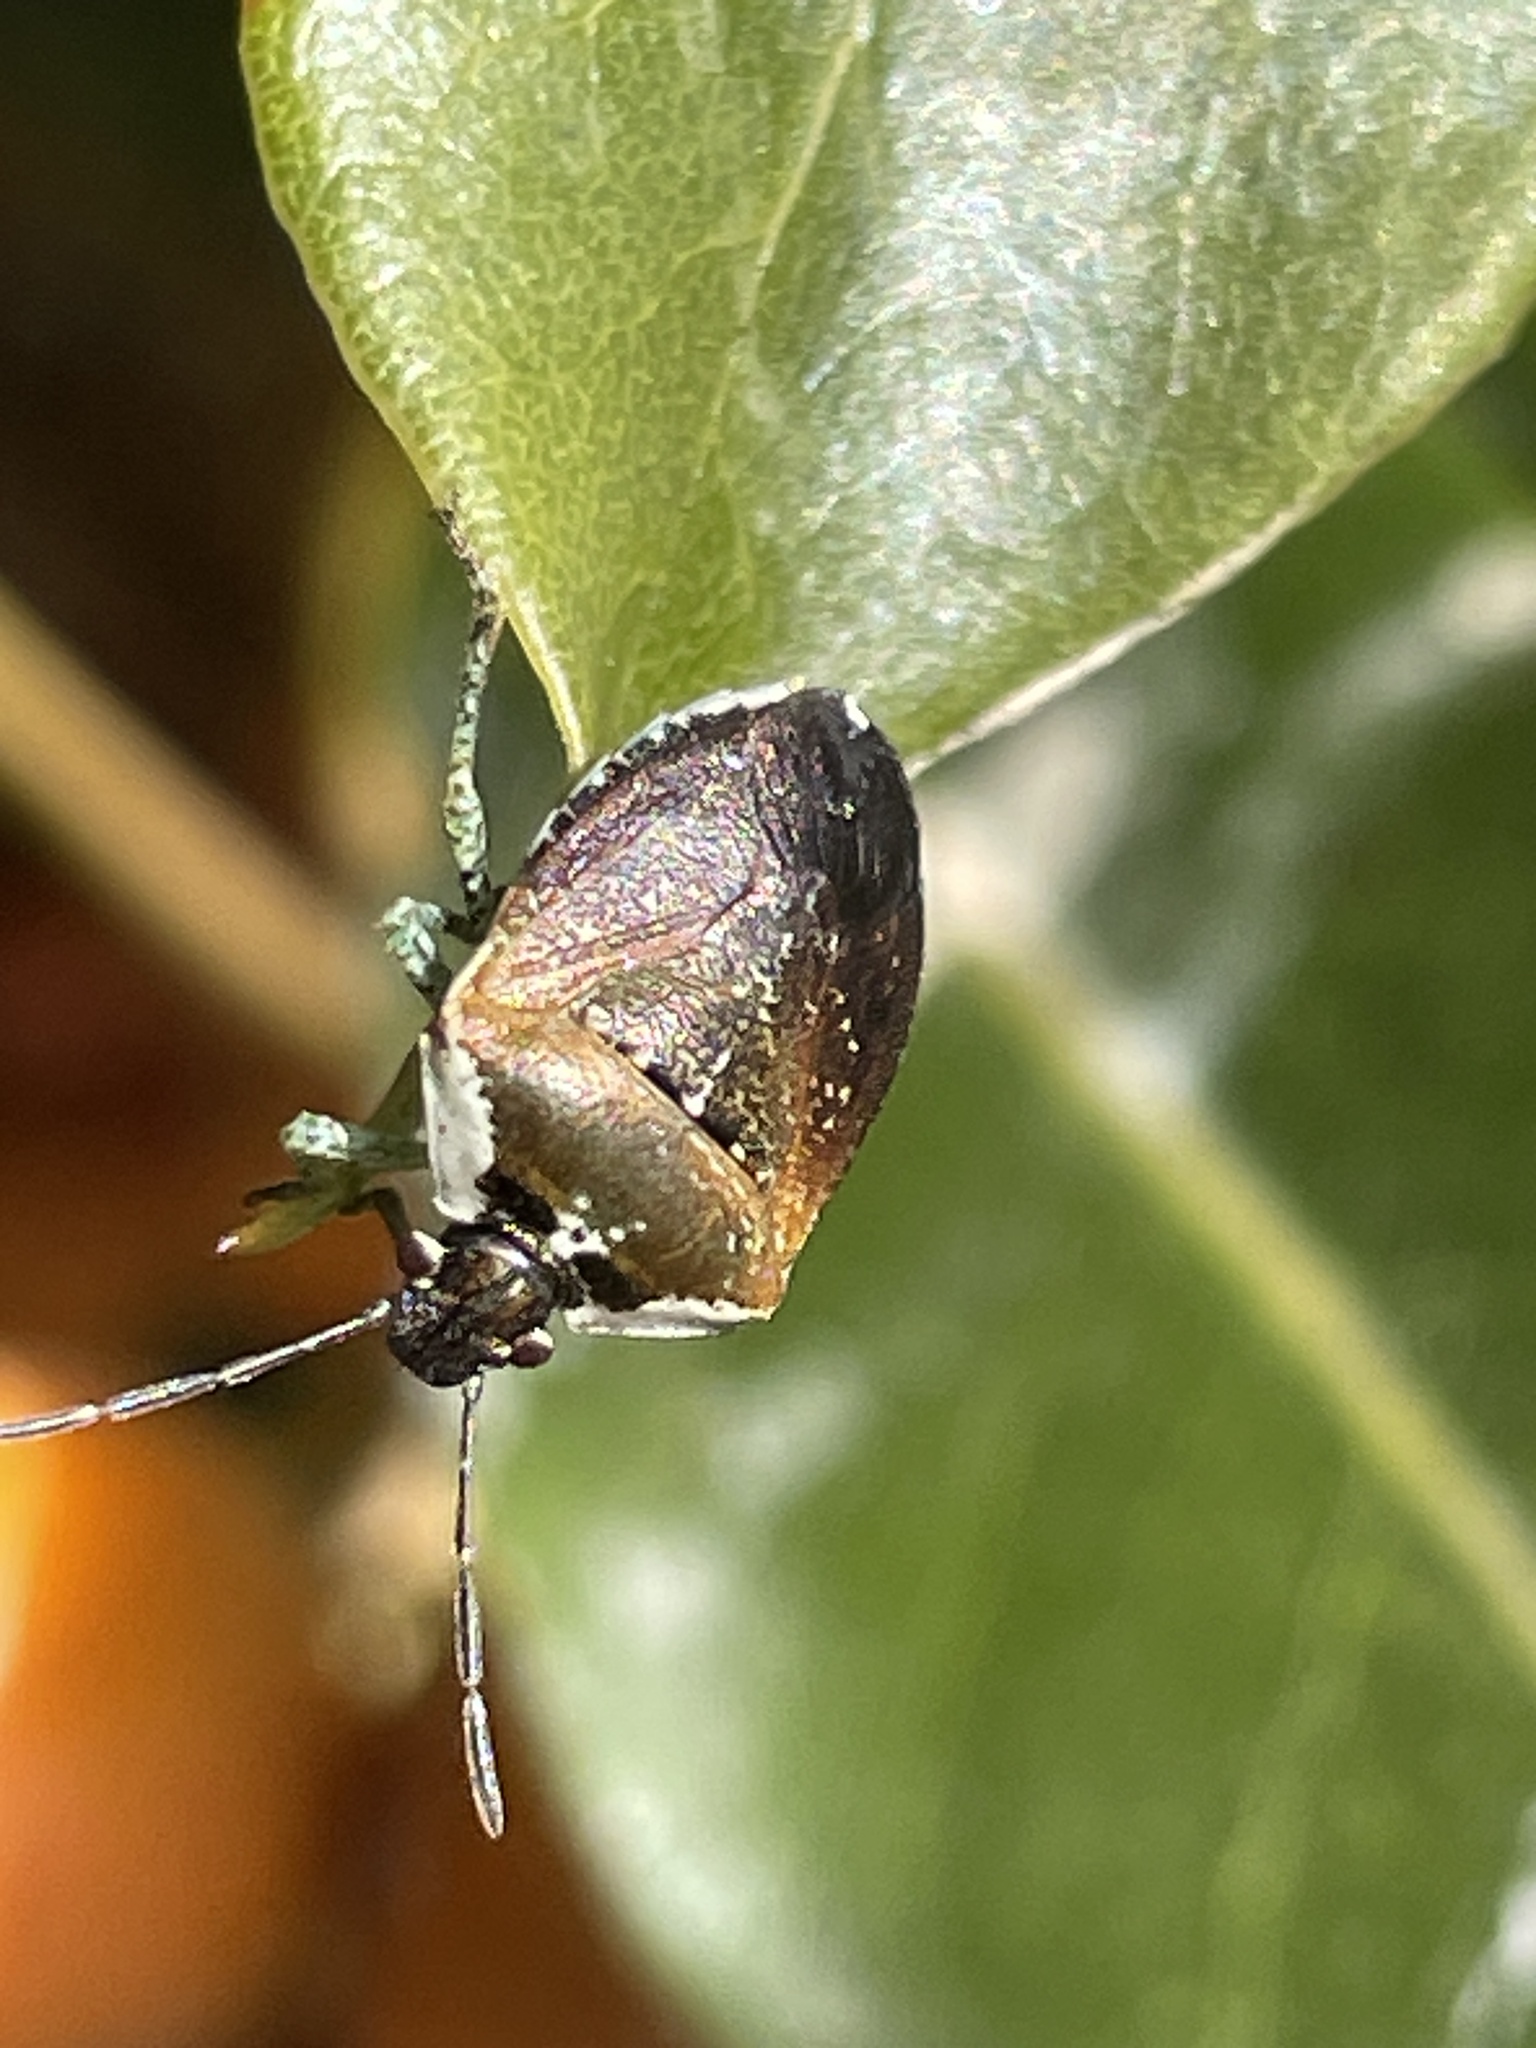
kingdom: Animalia
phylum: Arthropoda
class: Insecta
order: Hemiptera
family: Pentatomidae
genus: Monteithiella
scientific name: Monteithiella
